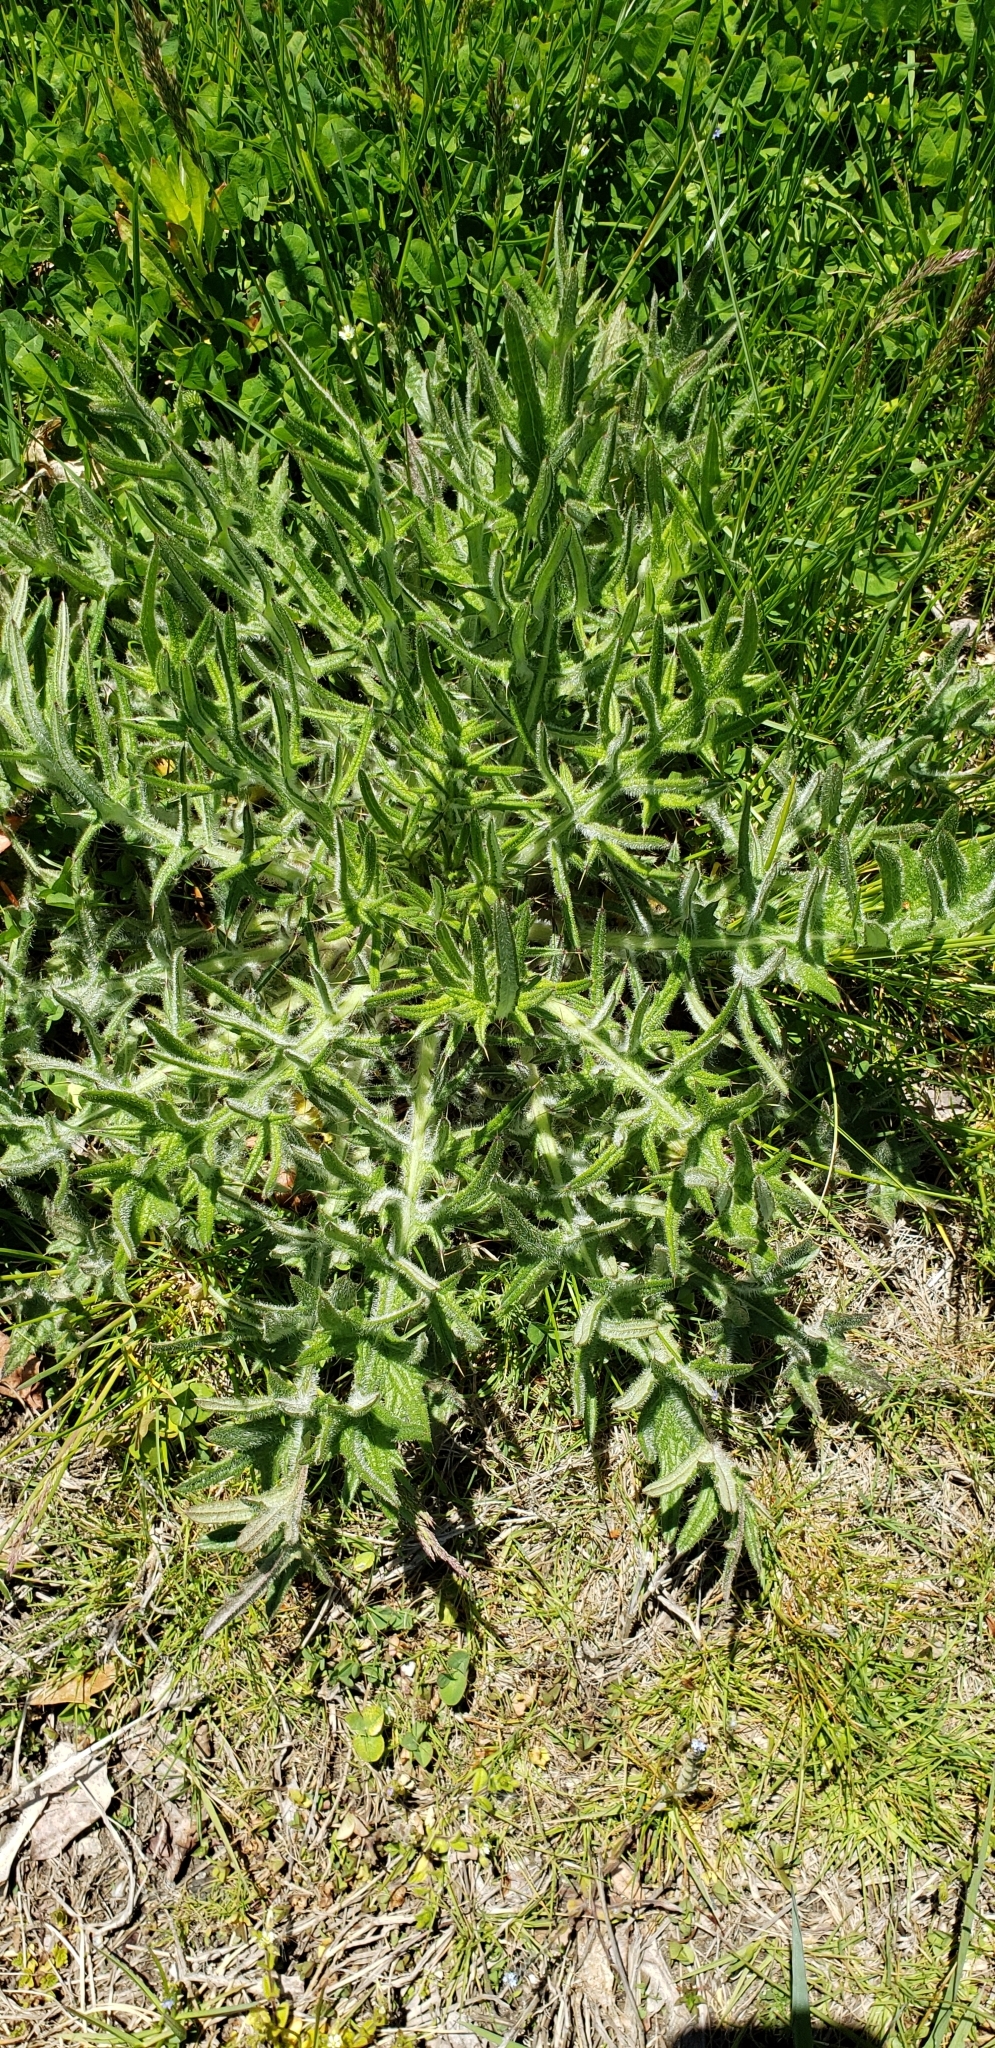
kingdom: Plantae
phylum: Tracheophyta
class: Magnoliopsida
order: Asterales
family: Asteraceae
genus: Cirsium
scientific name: Cirsium vulgare
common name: Bull thistle
